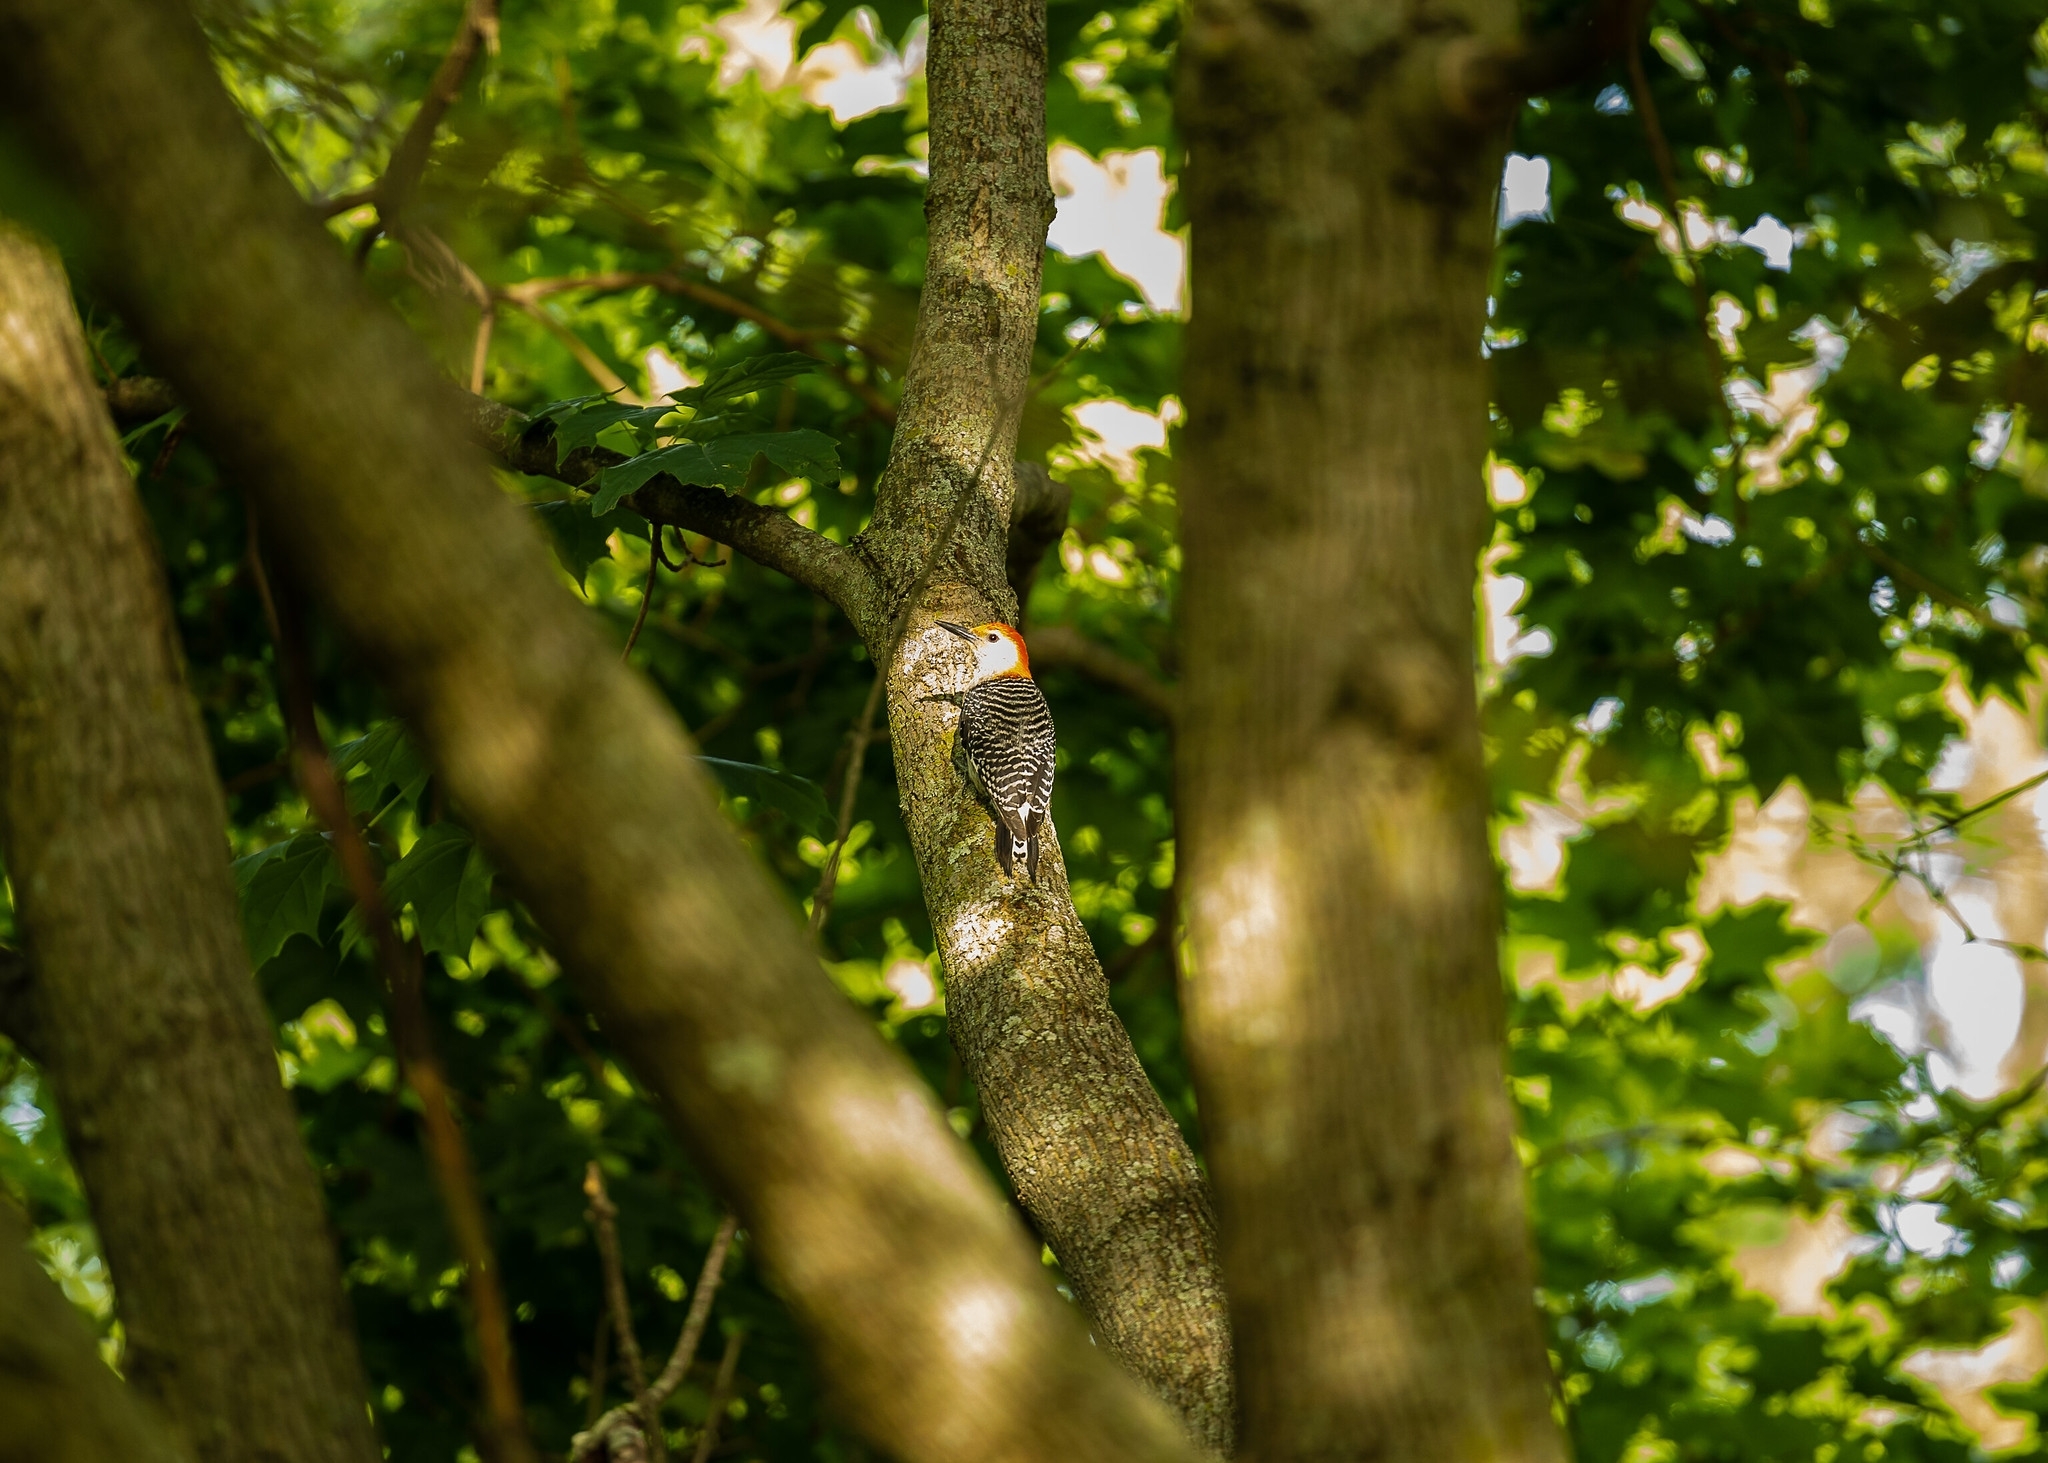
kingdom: Animalia
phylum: Chordata
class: Aves
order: Piciformes
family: Picidae
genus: Melanerpes
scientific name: Melanerpes carolinus
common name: Red-bellied woodpecker
